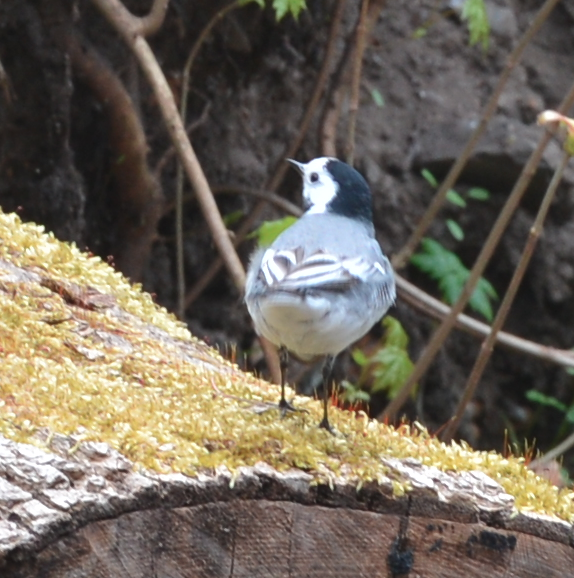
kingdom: Animalia
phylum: Chordata
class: Aves
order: Passeriformes
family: Motacillidae
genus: Motacilla
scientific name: Motacilla alba
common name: White wagtail
